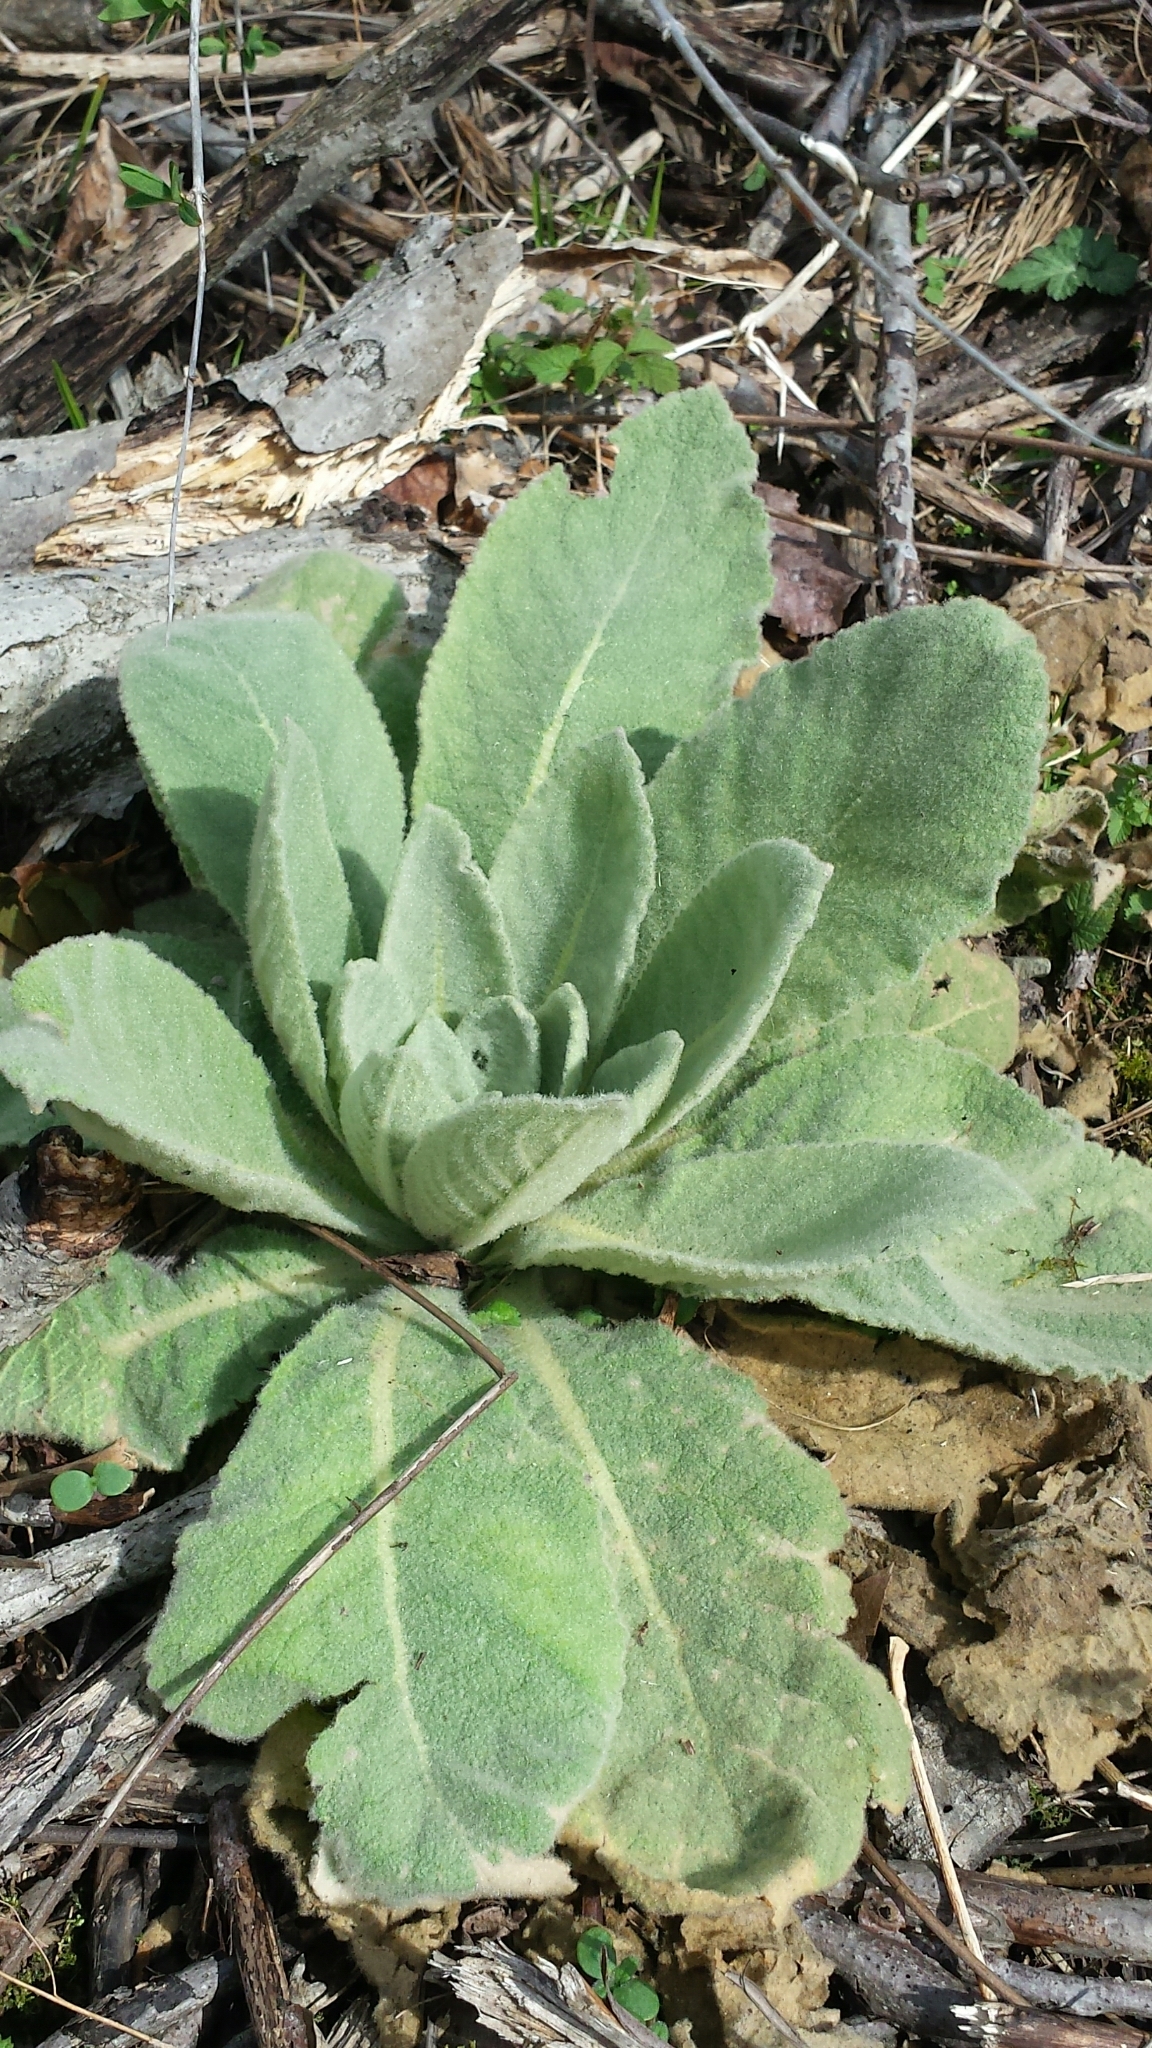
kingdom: Plantae
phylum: Tracheophyta
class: Magnoliopsida
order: Lamiales
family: Scrophulariaceae
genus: Verbascum
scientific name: Verbascum thapsus
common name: Common mullein
